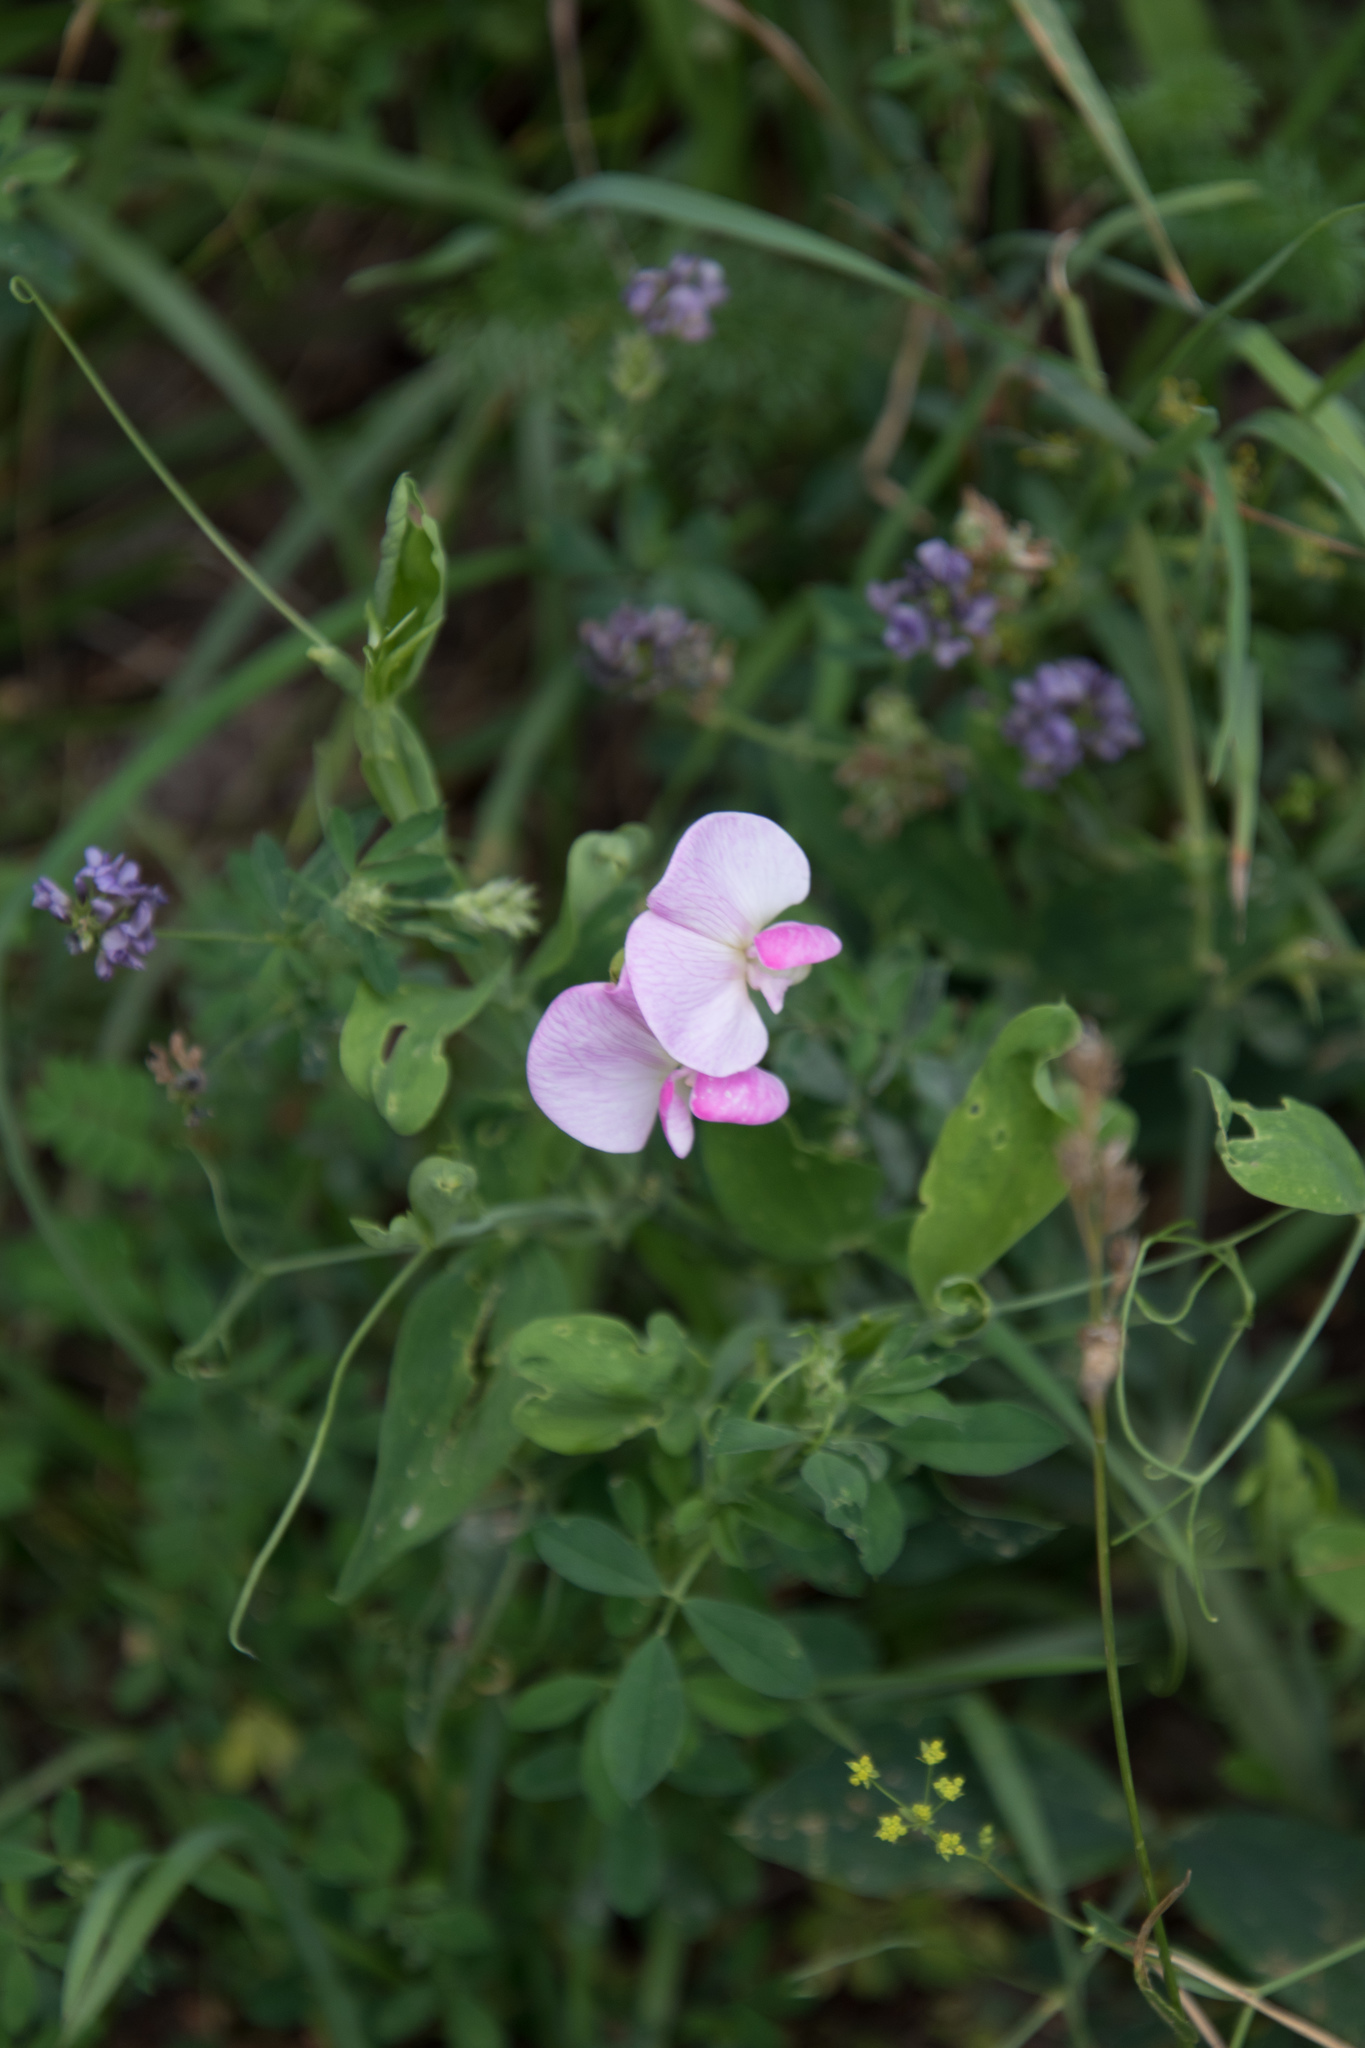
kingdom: Plantae
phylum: Tracheophyta
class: Magnoliopsida
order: Fabales
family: Fabaceae
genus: Lathyrus
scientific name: Lathyrus latifolius
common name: Perennial pea
